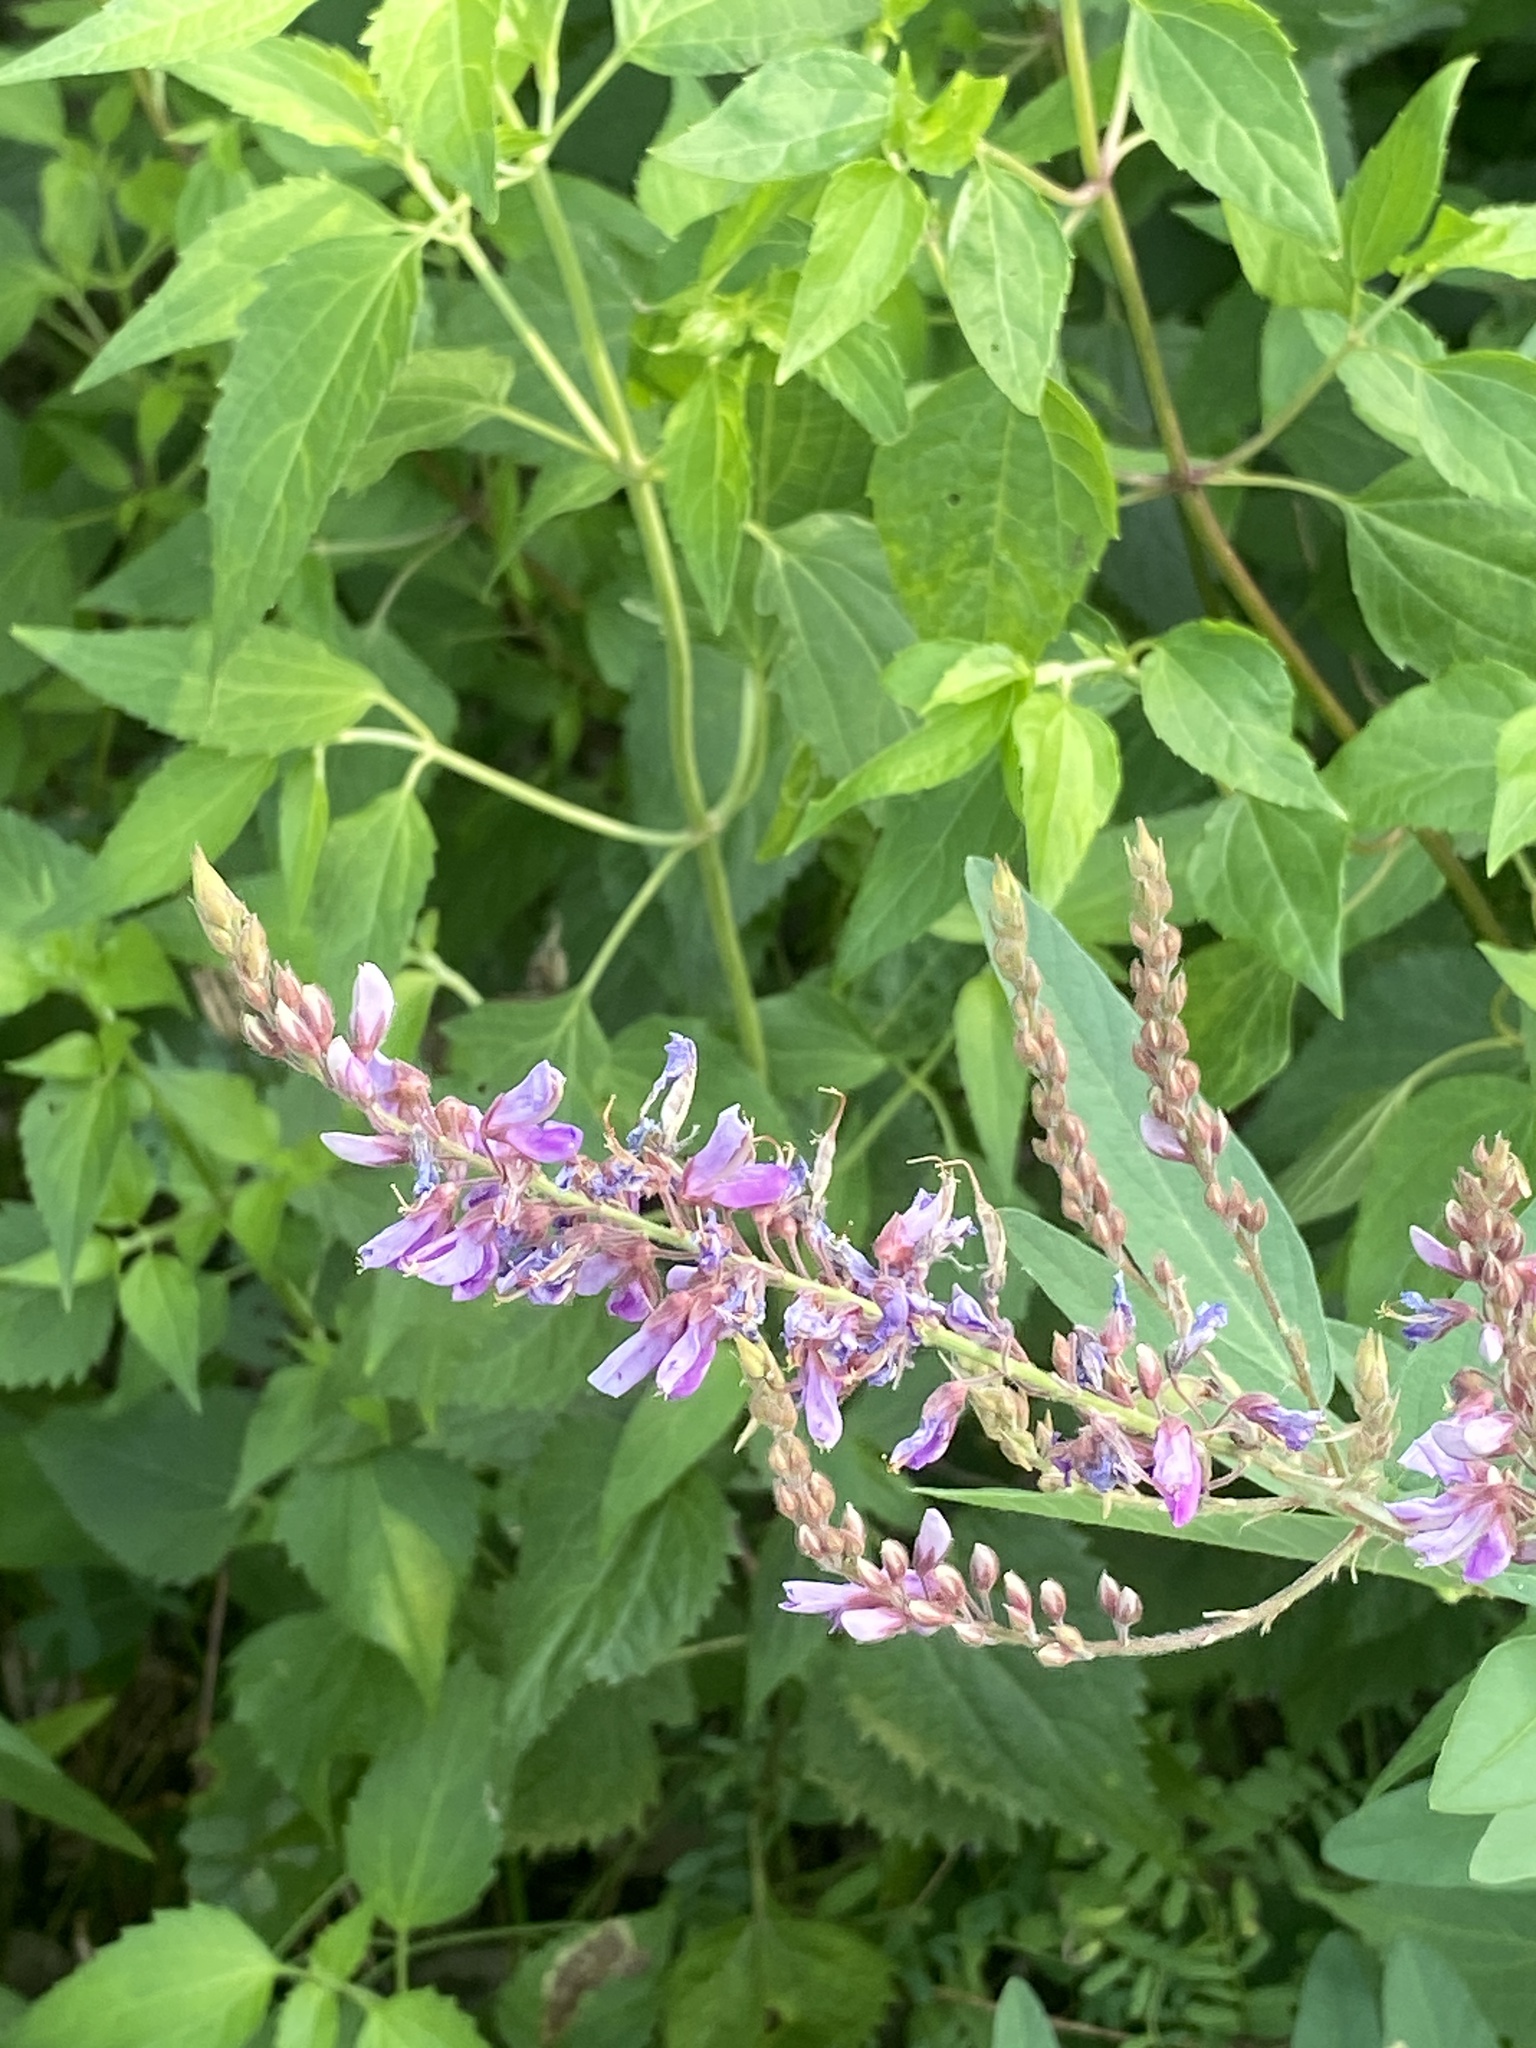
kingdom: Plantae
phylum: Tracheophyta
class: Magnoliopsida
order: Fabales
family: Fabaceae
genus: Desmodium
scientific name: Desmodium canadense
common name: Canada tick-trefoil
